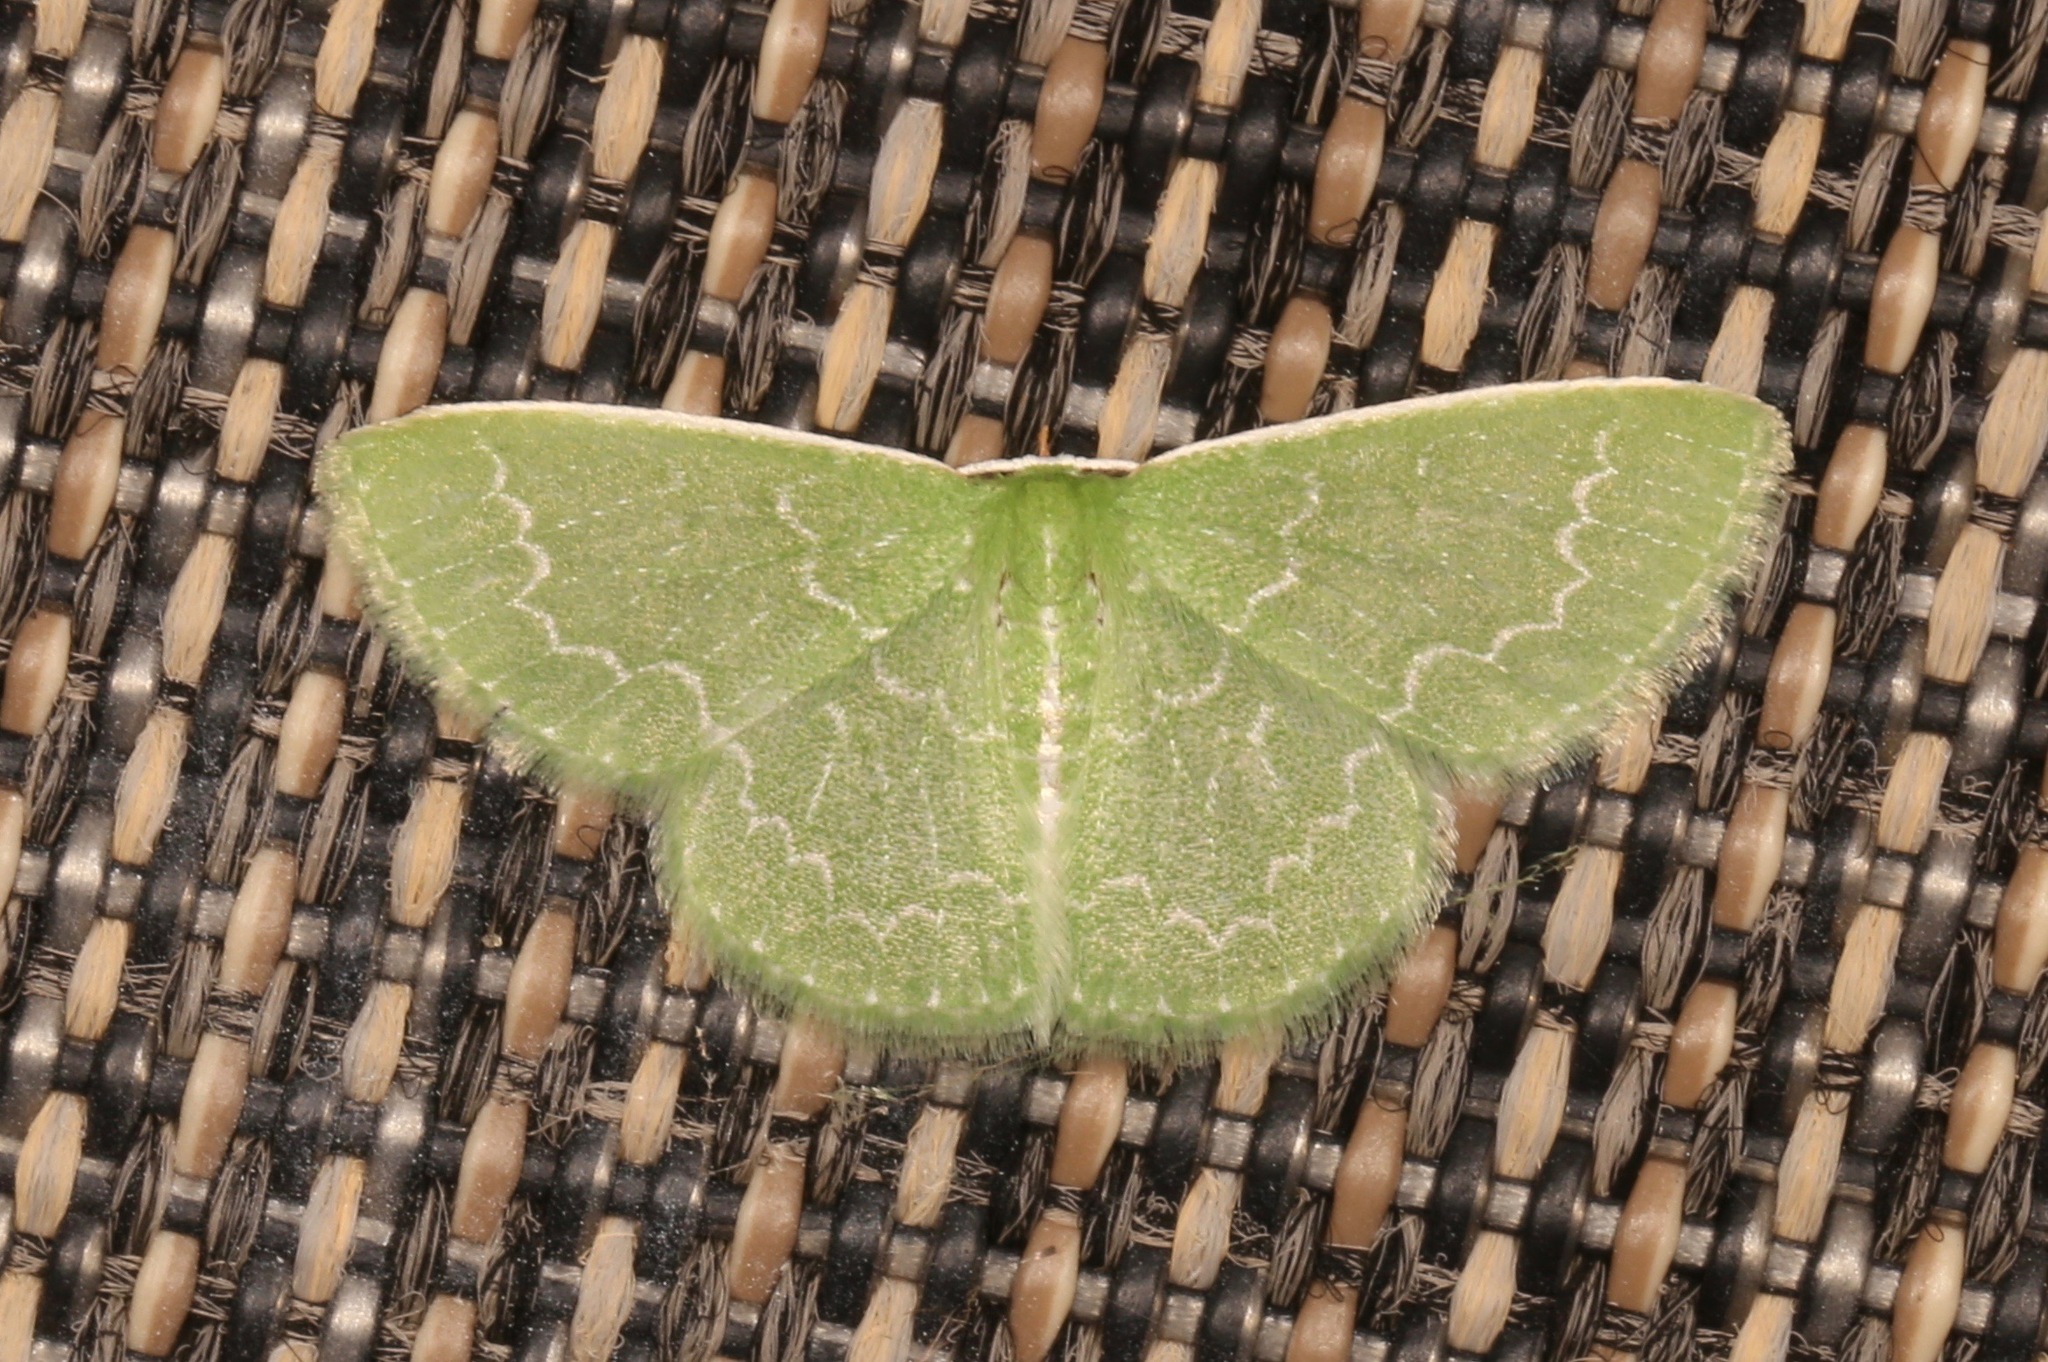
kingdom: Animalia
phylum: Arthropoda
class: Insecta
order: Lepidoptera
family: Geometridae
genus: Synchlora
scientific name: Synchlora frondaria
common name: Southern emerald
